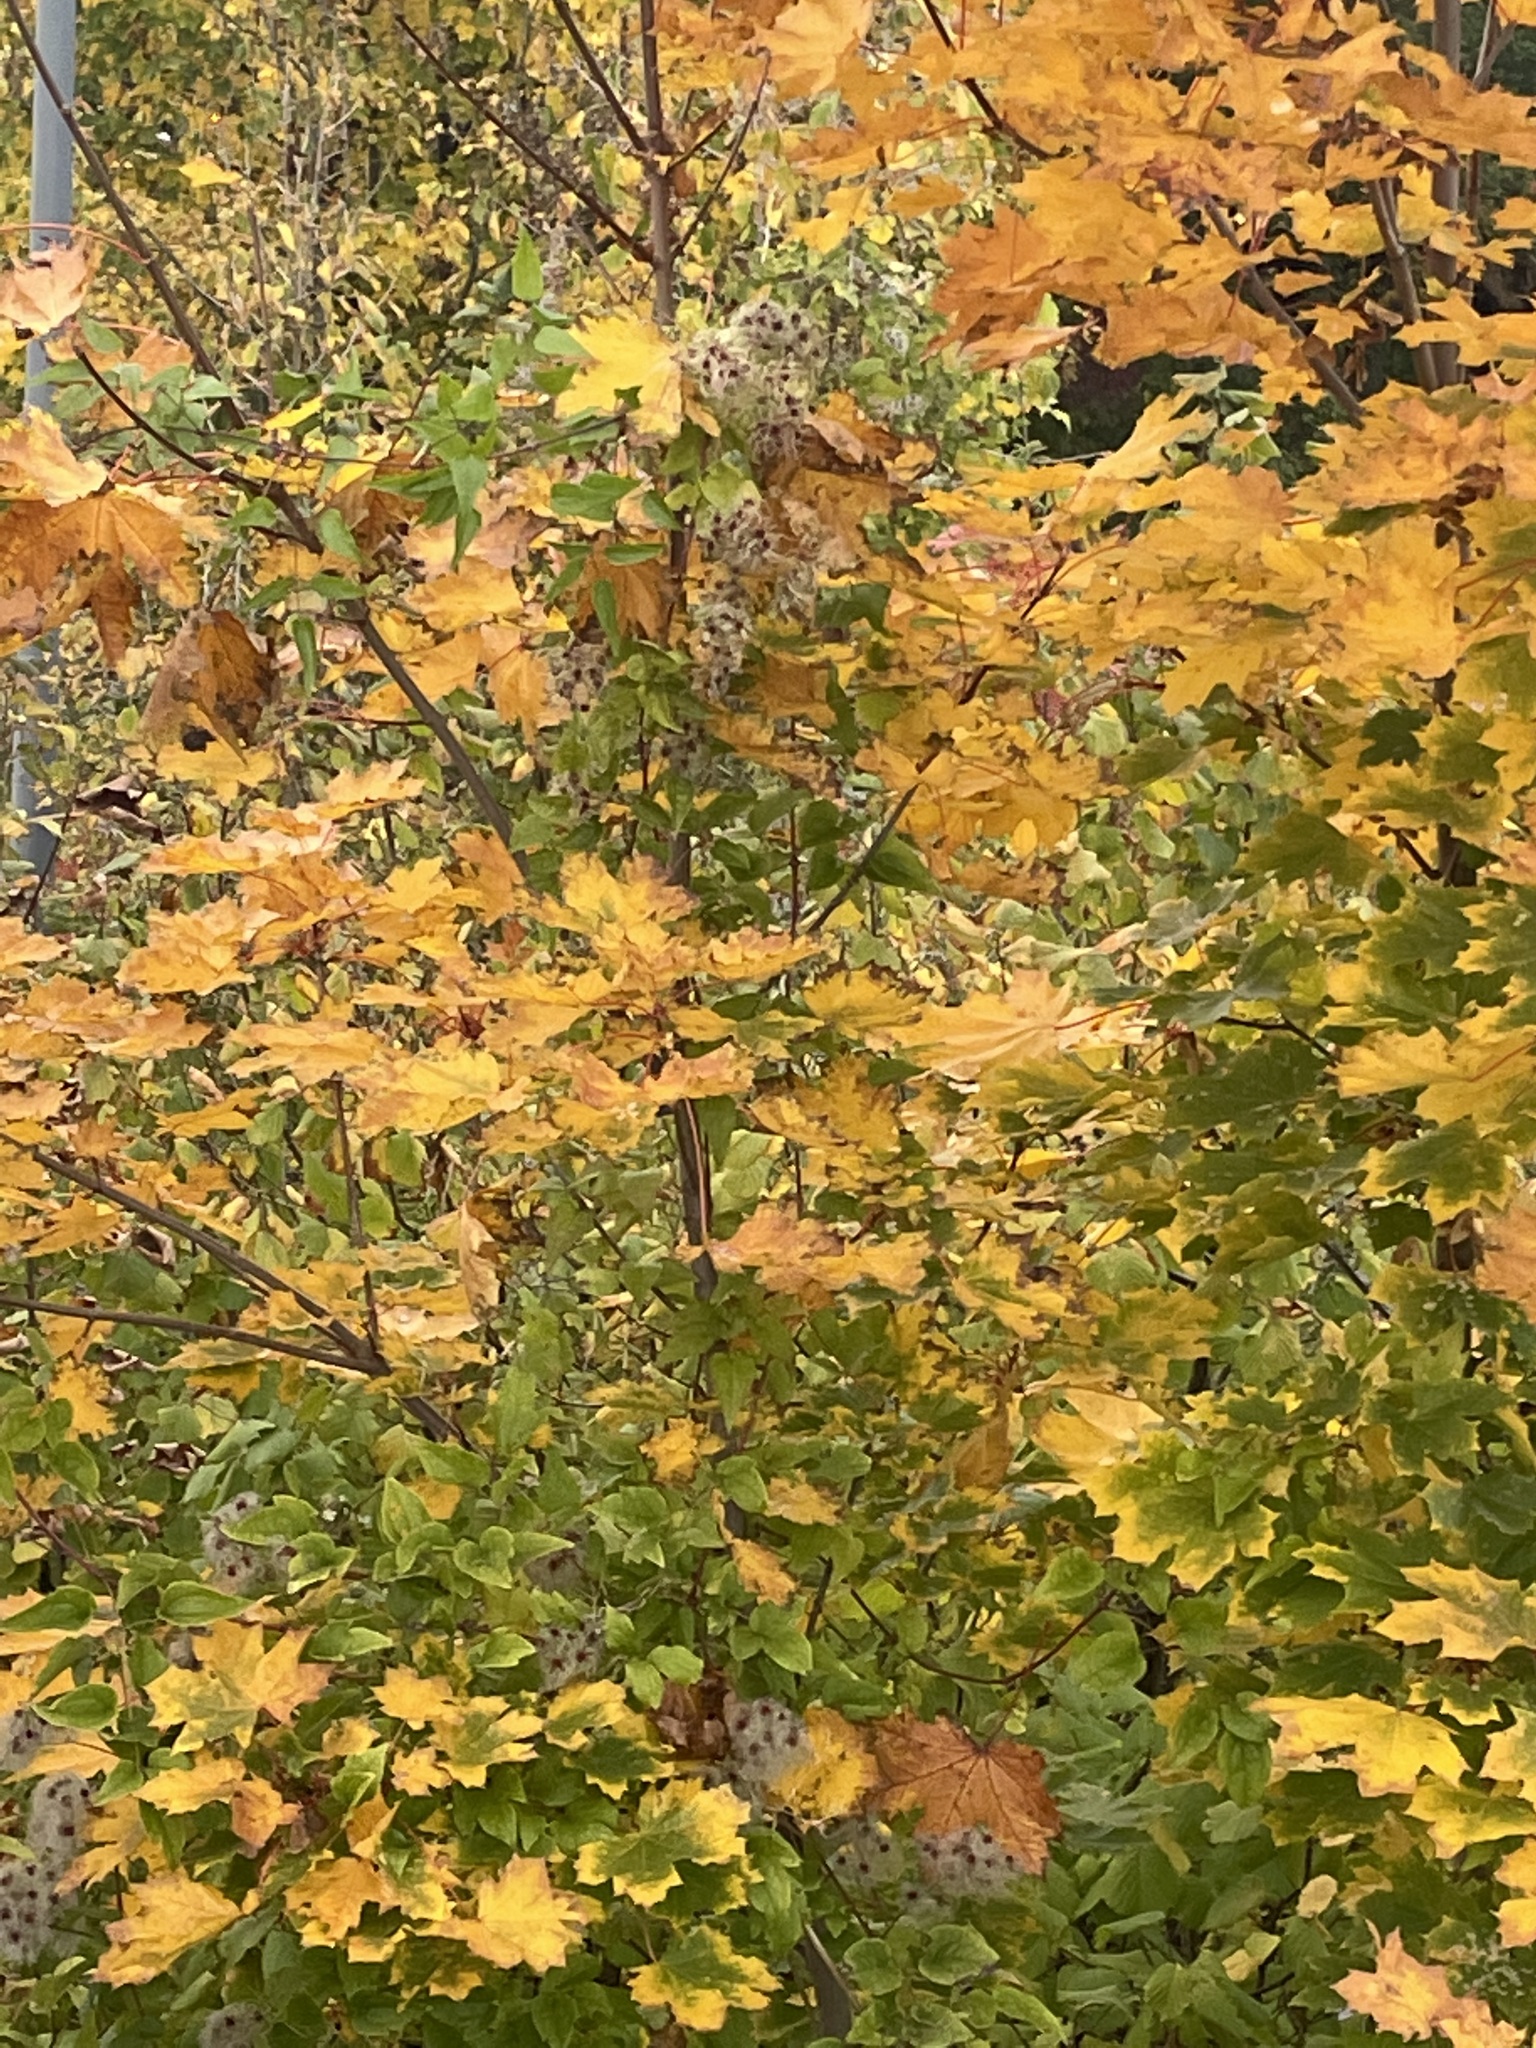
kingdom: Plantae
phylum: Tracheophyta
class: Magnoliopsida
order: Sapindales
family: Sapindaceae
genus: Acer
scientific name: Acer platanoides
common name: Norway maple
